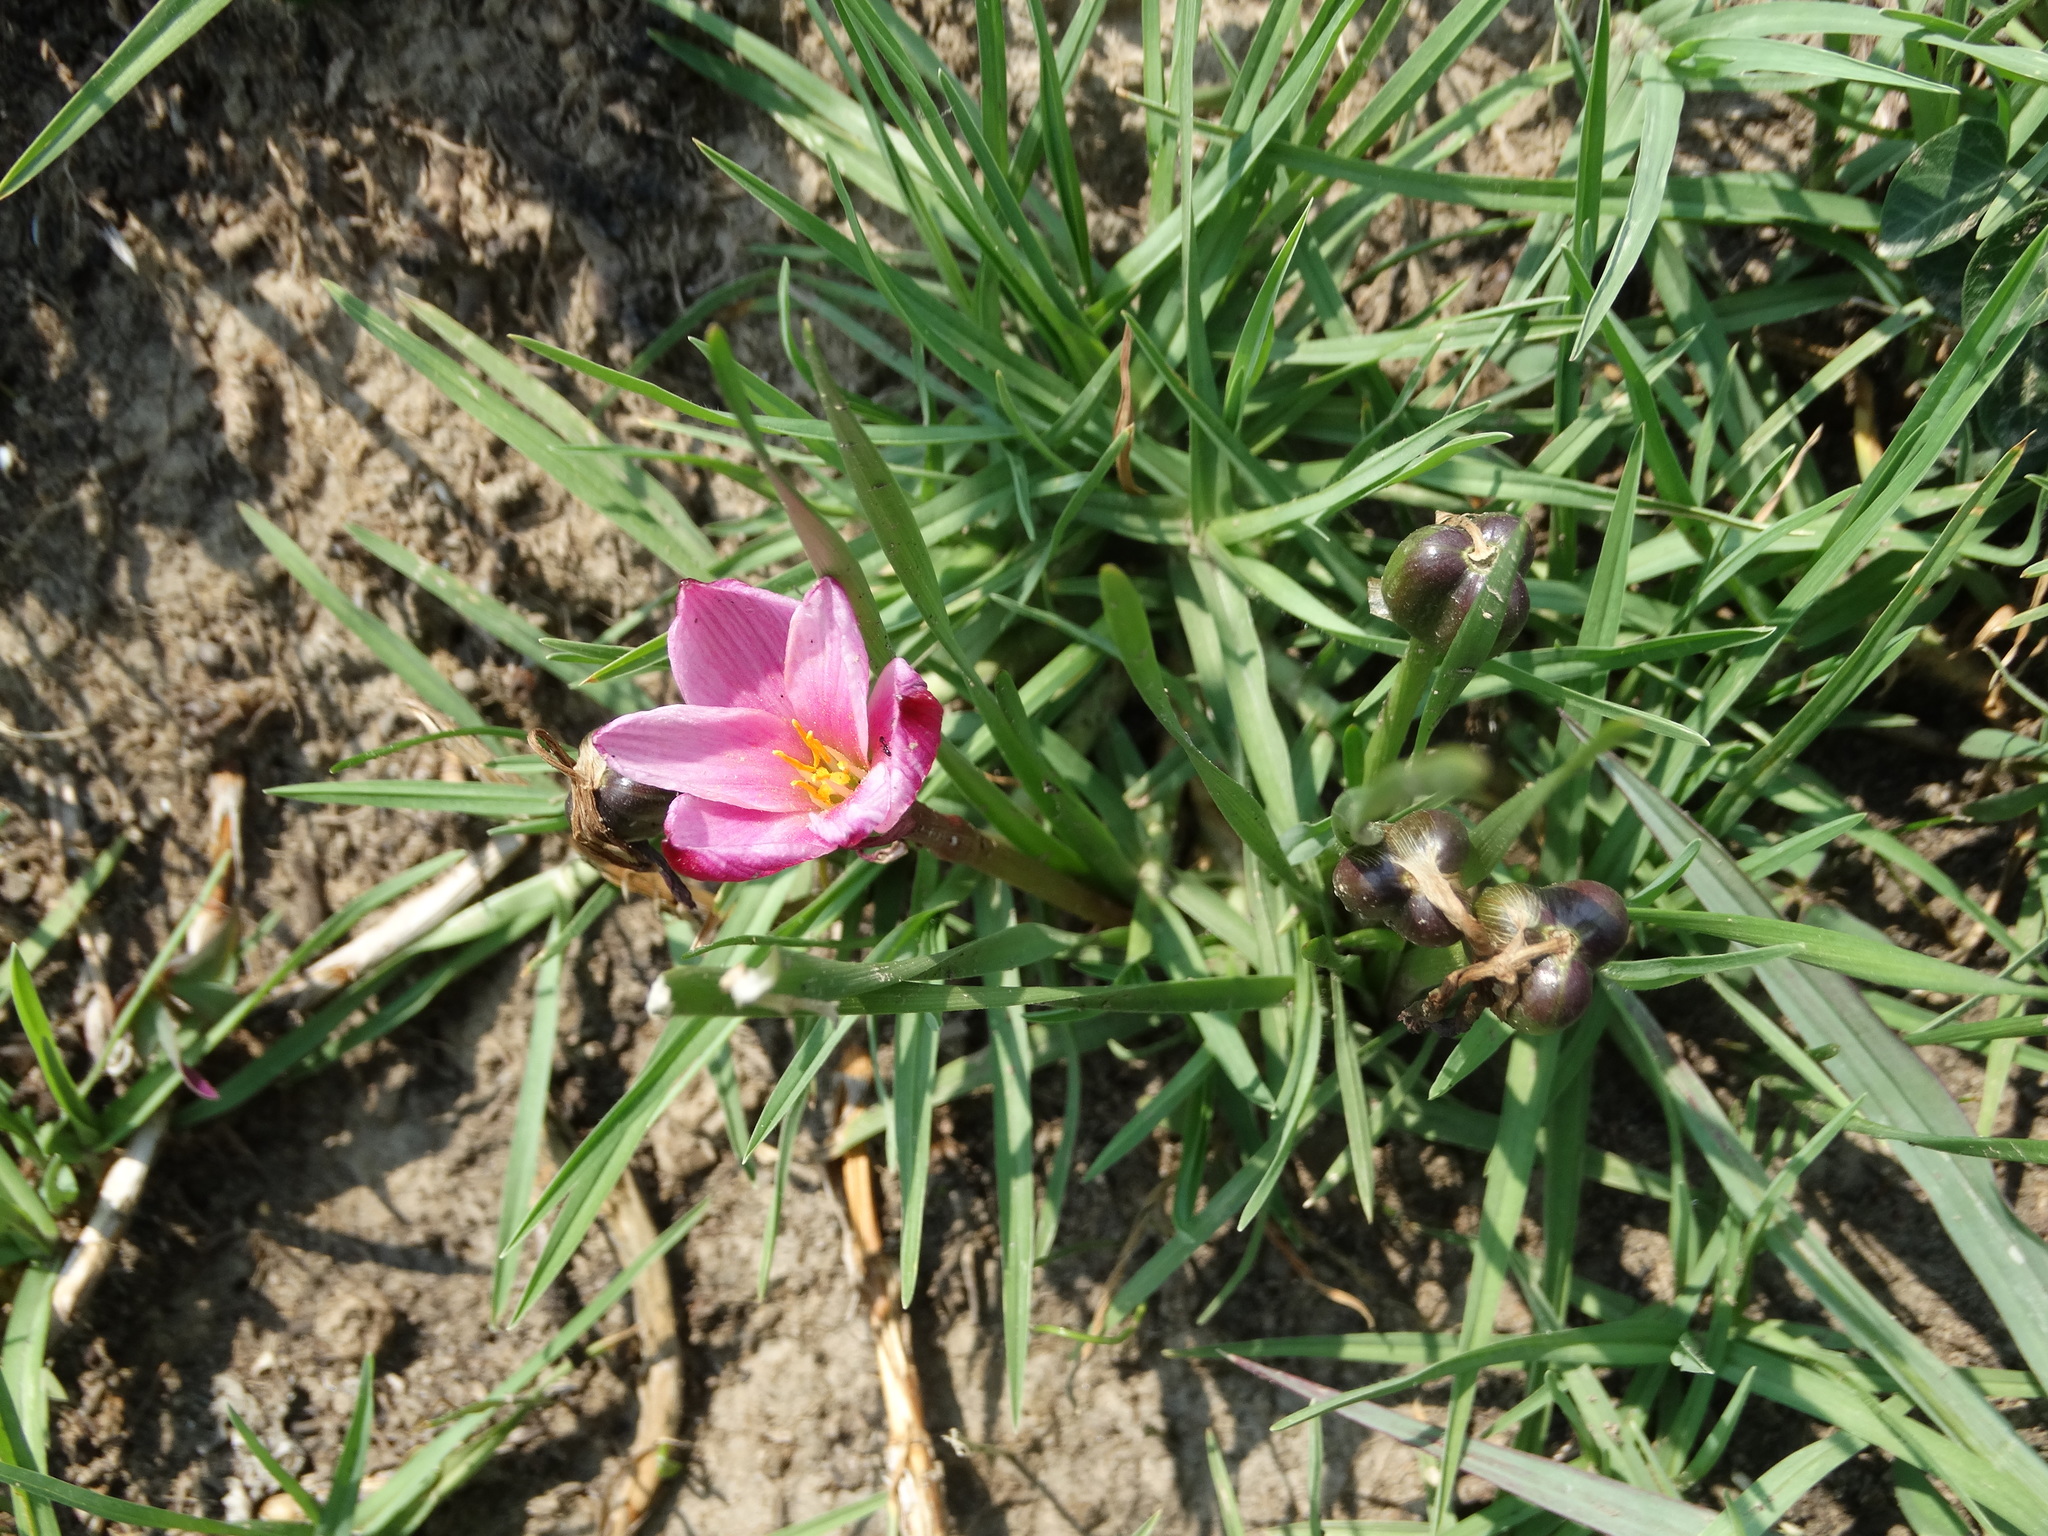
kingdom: Plantae
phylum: Tracheophyta
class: Liliopsida
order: Asparagales
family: Amaryllidaceae
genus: Zephyranthes
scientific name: Zephyranthes fosteri
